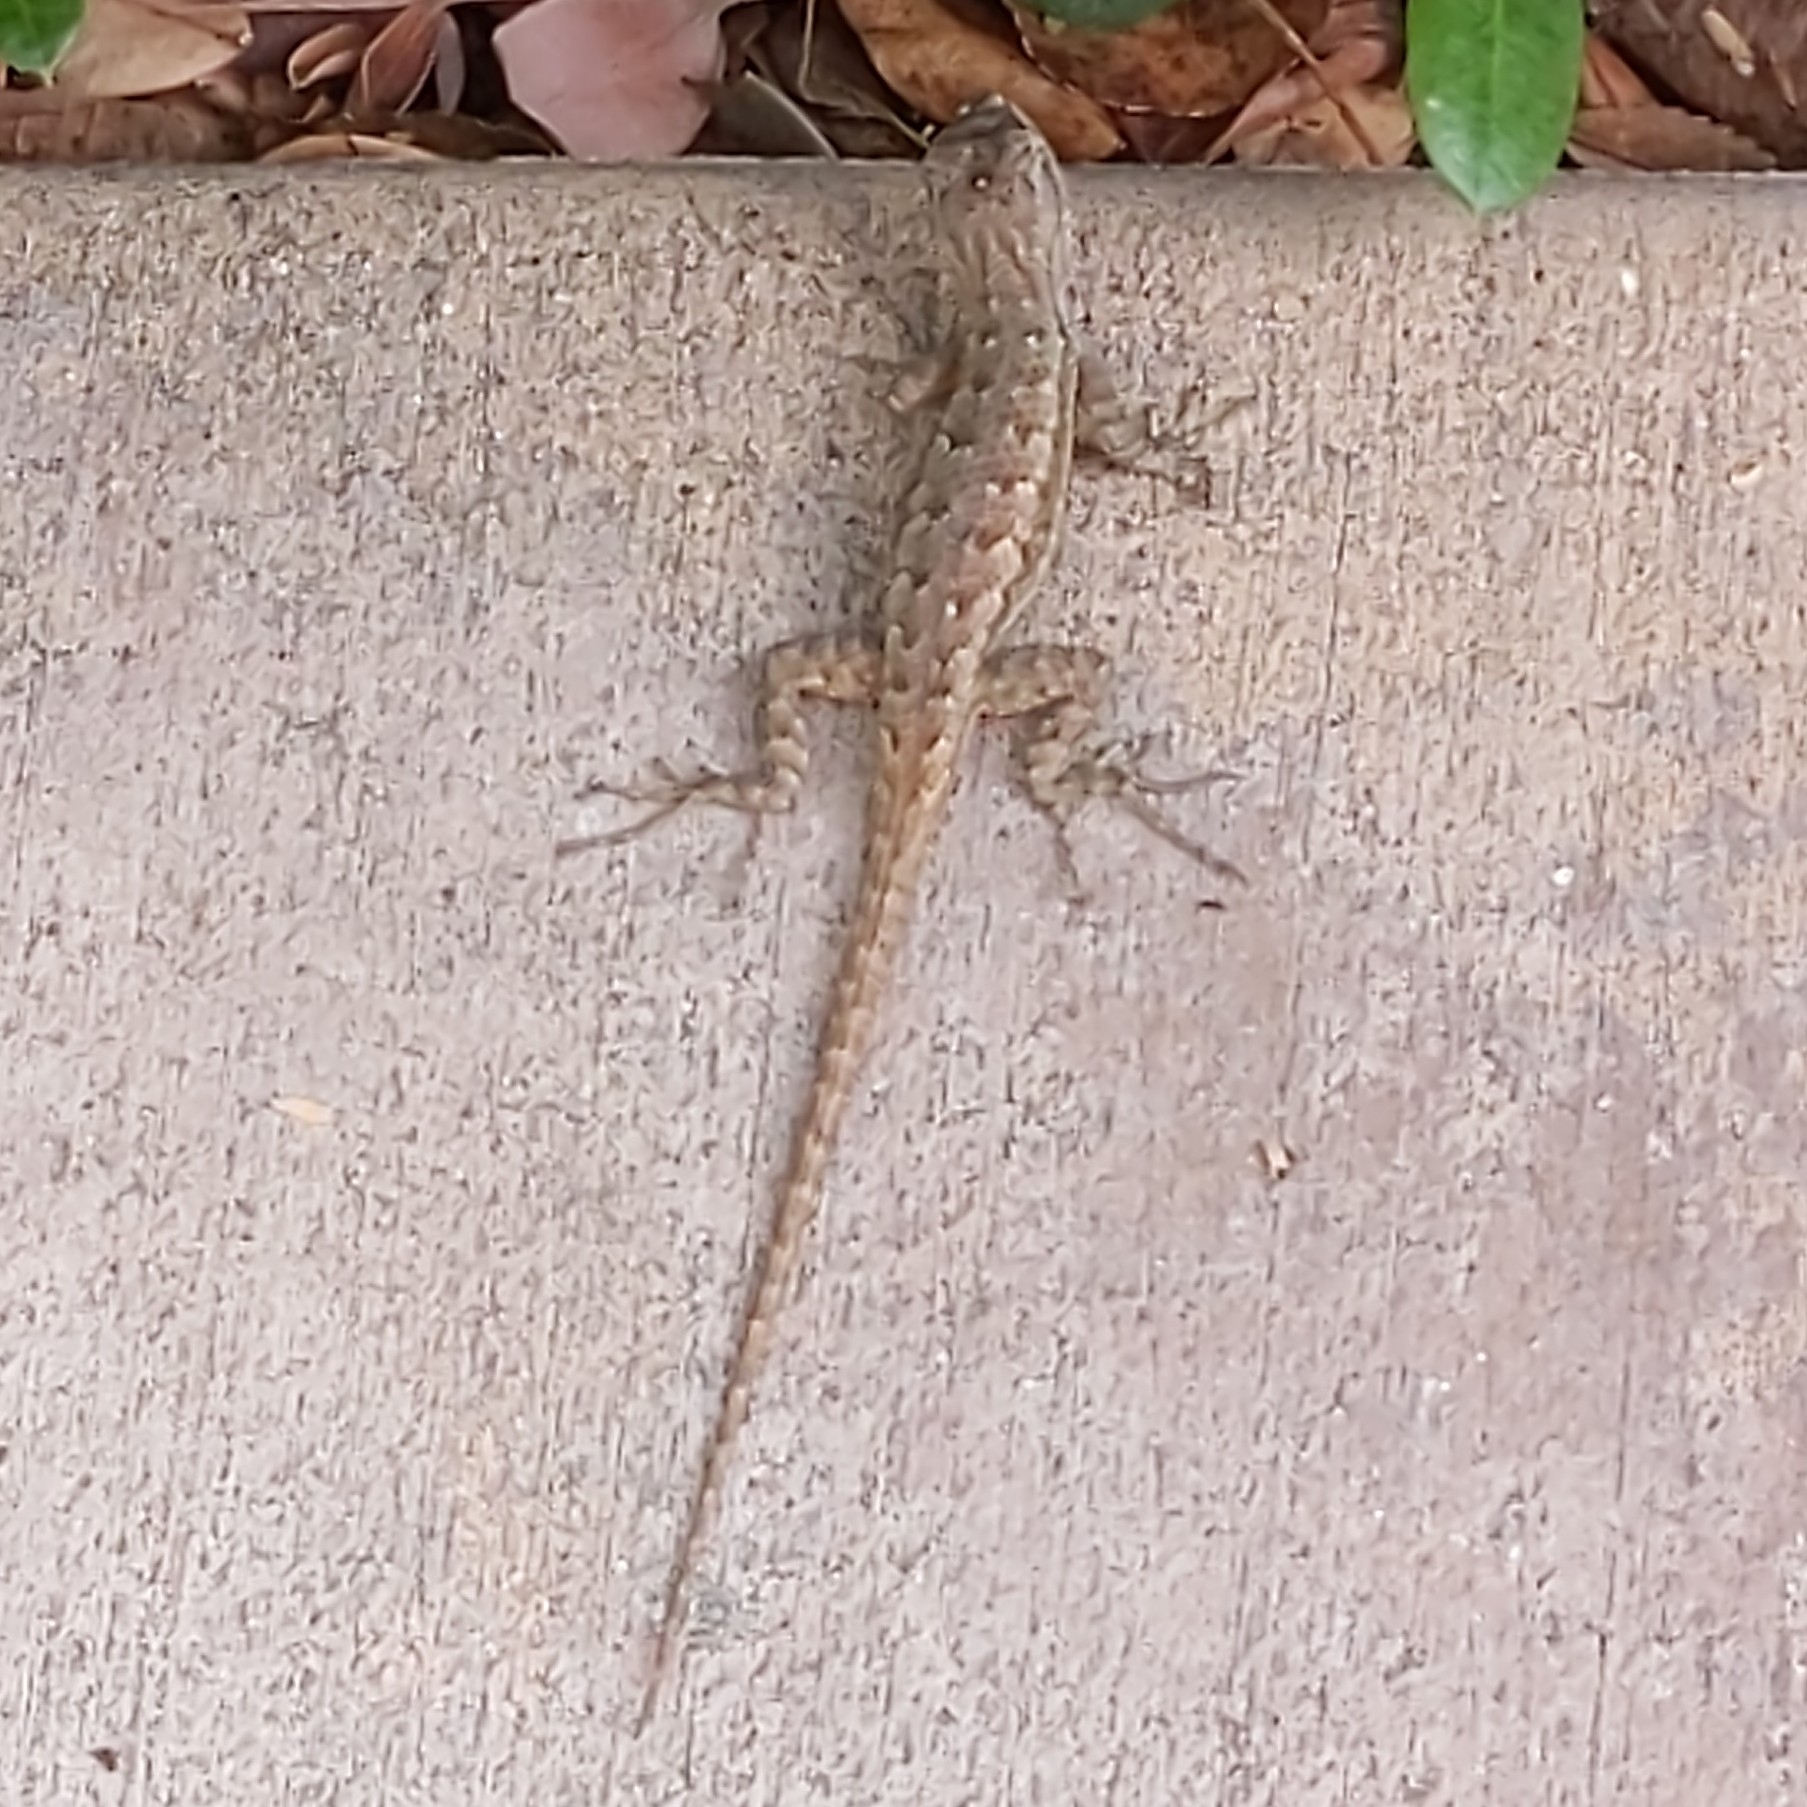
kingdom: Animalia
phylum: Chordata
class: Squamata
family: Phrynosomatidae
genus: Sceloporus
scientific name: Sceloporus occidentalis
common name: Western fence lizard
